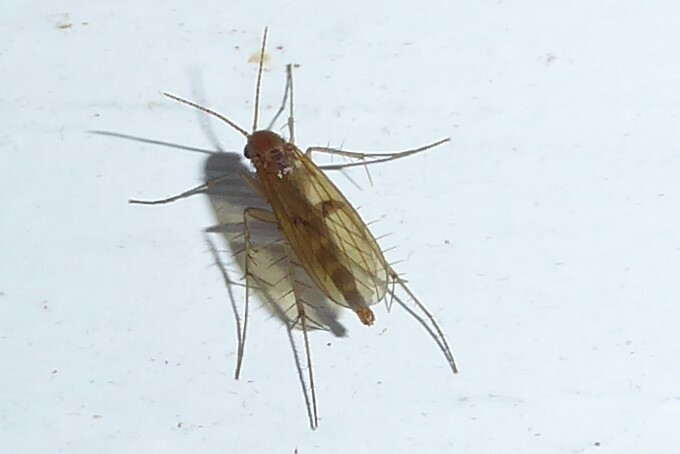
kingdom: Animalia
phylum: Arthropoda
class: Insecta
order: Diptera
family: Mycetophilidae
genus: Mycetophila
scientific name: Mycetophila fagi
